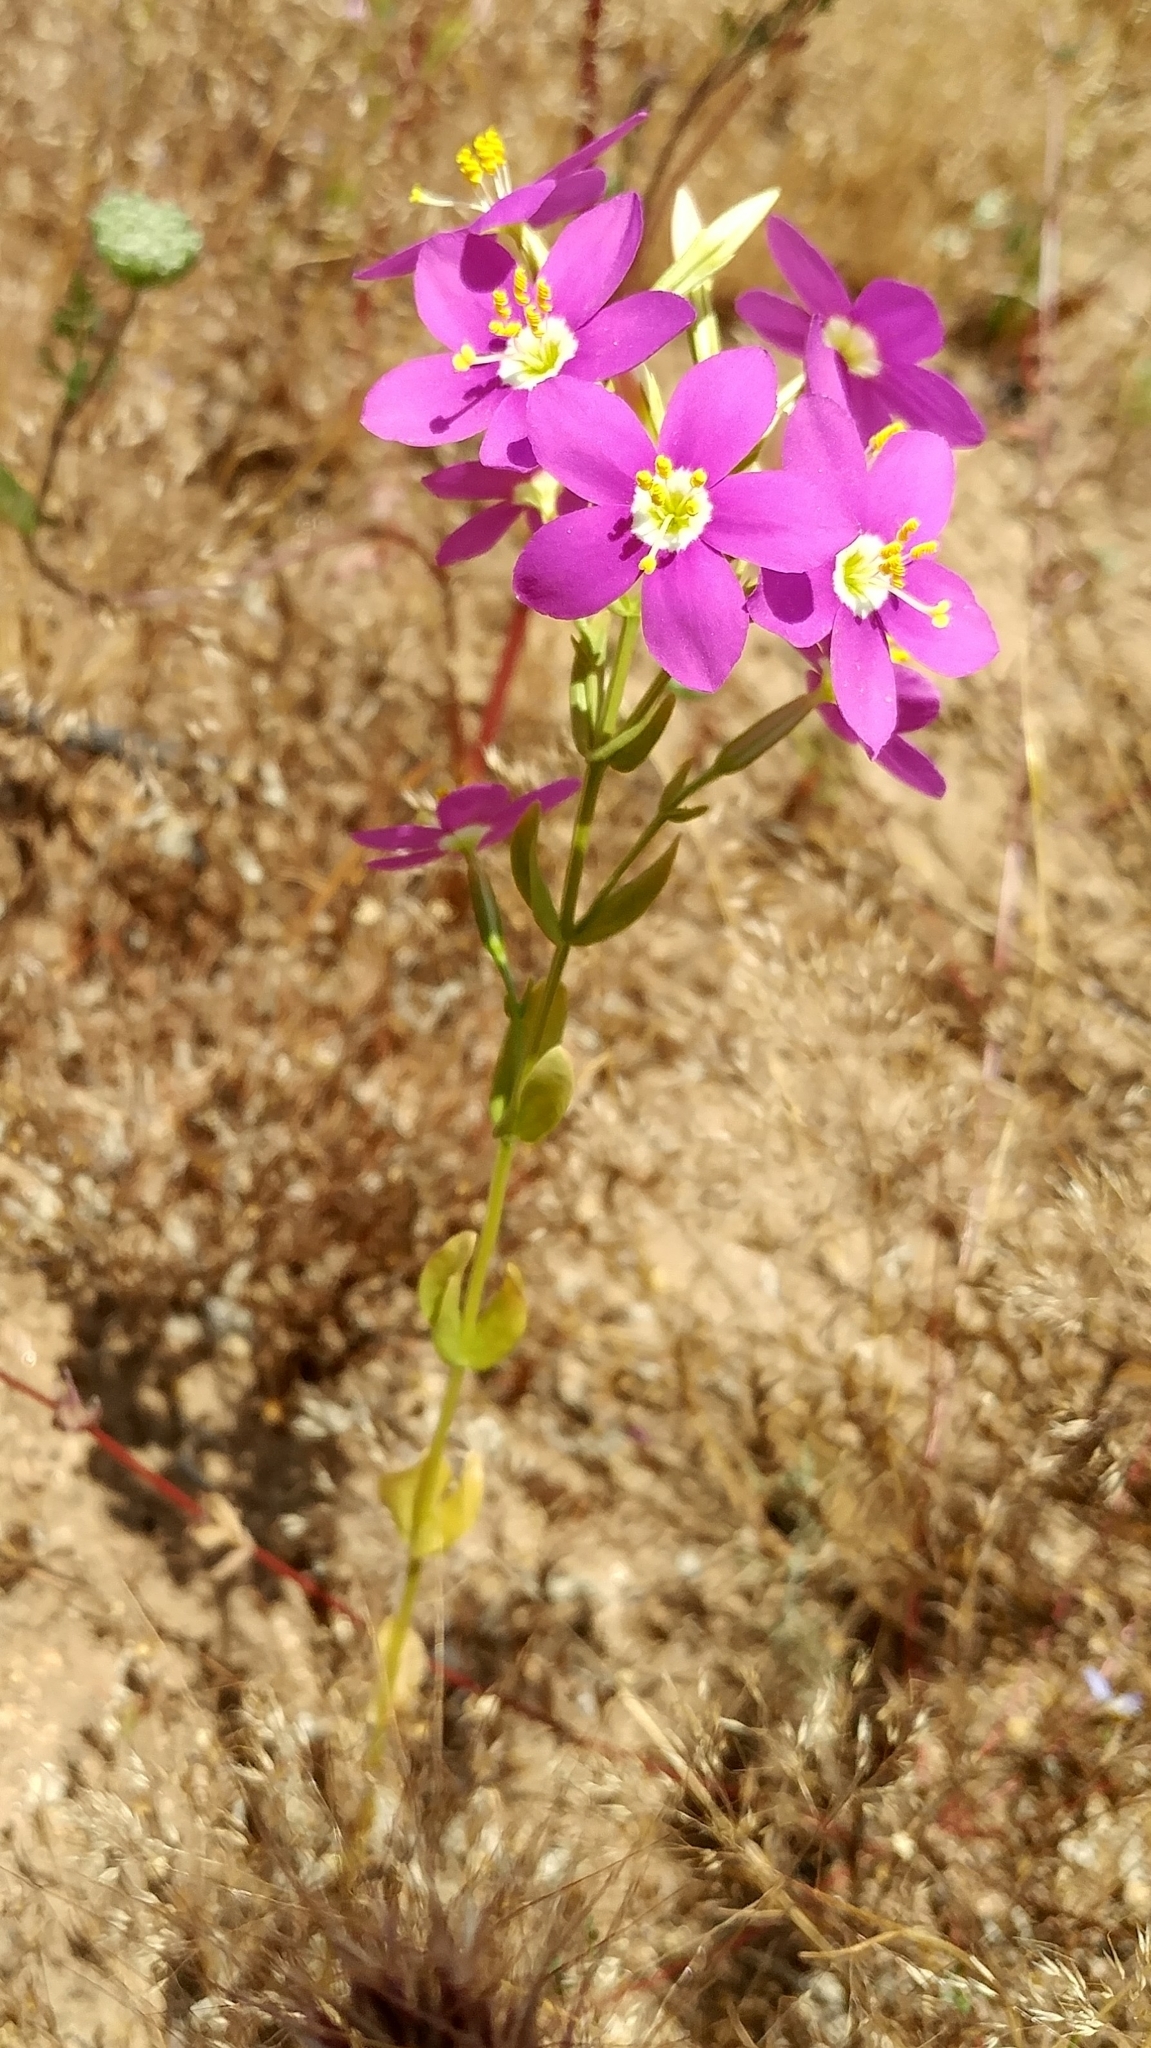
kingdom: Plantae
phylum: Tracheophyta
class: Magnoliopsida
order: Gentianales
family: Gentianaceae
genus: Zeltnera
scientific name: Zeltnera venusta
